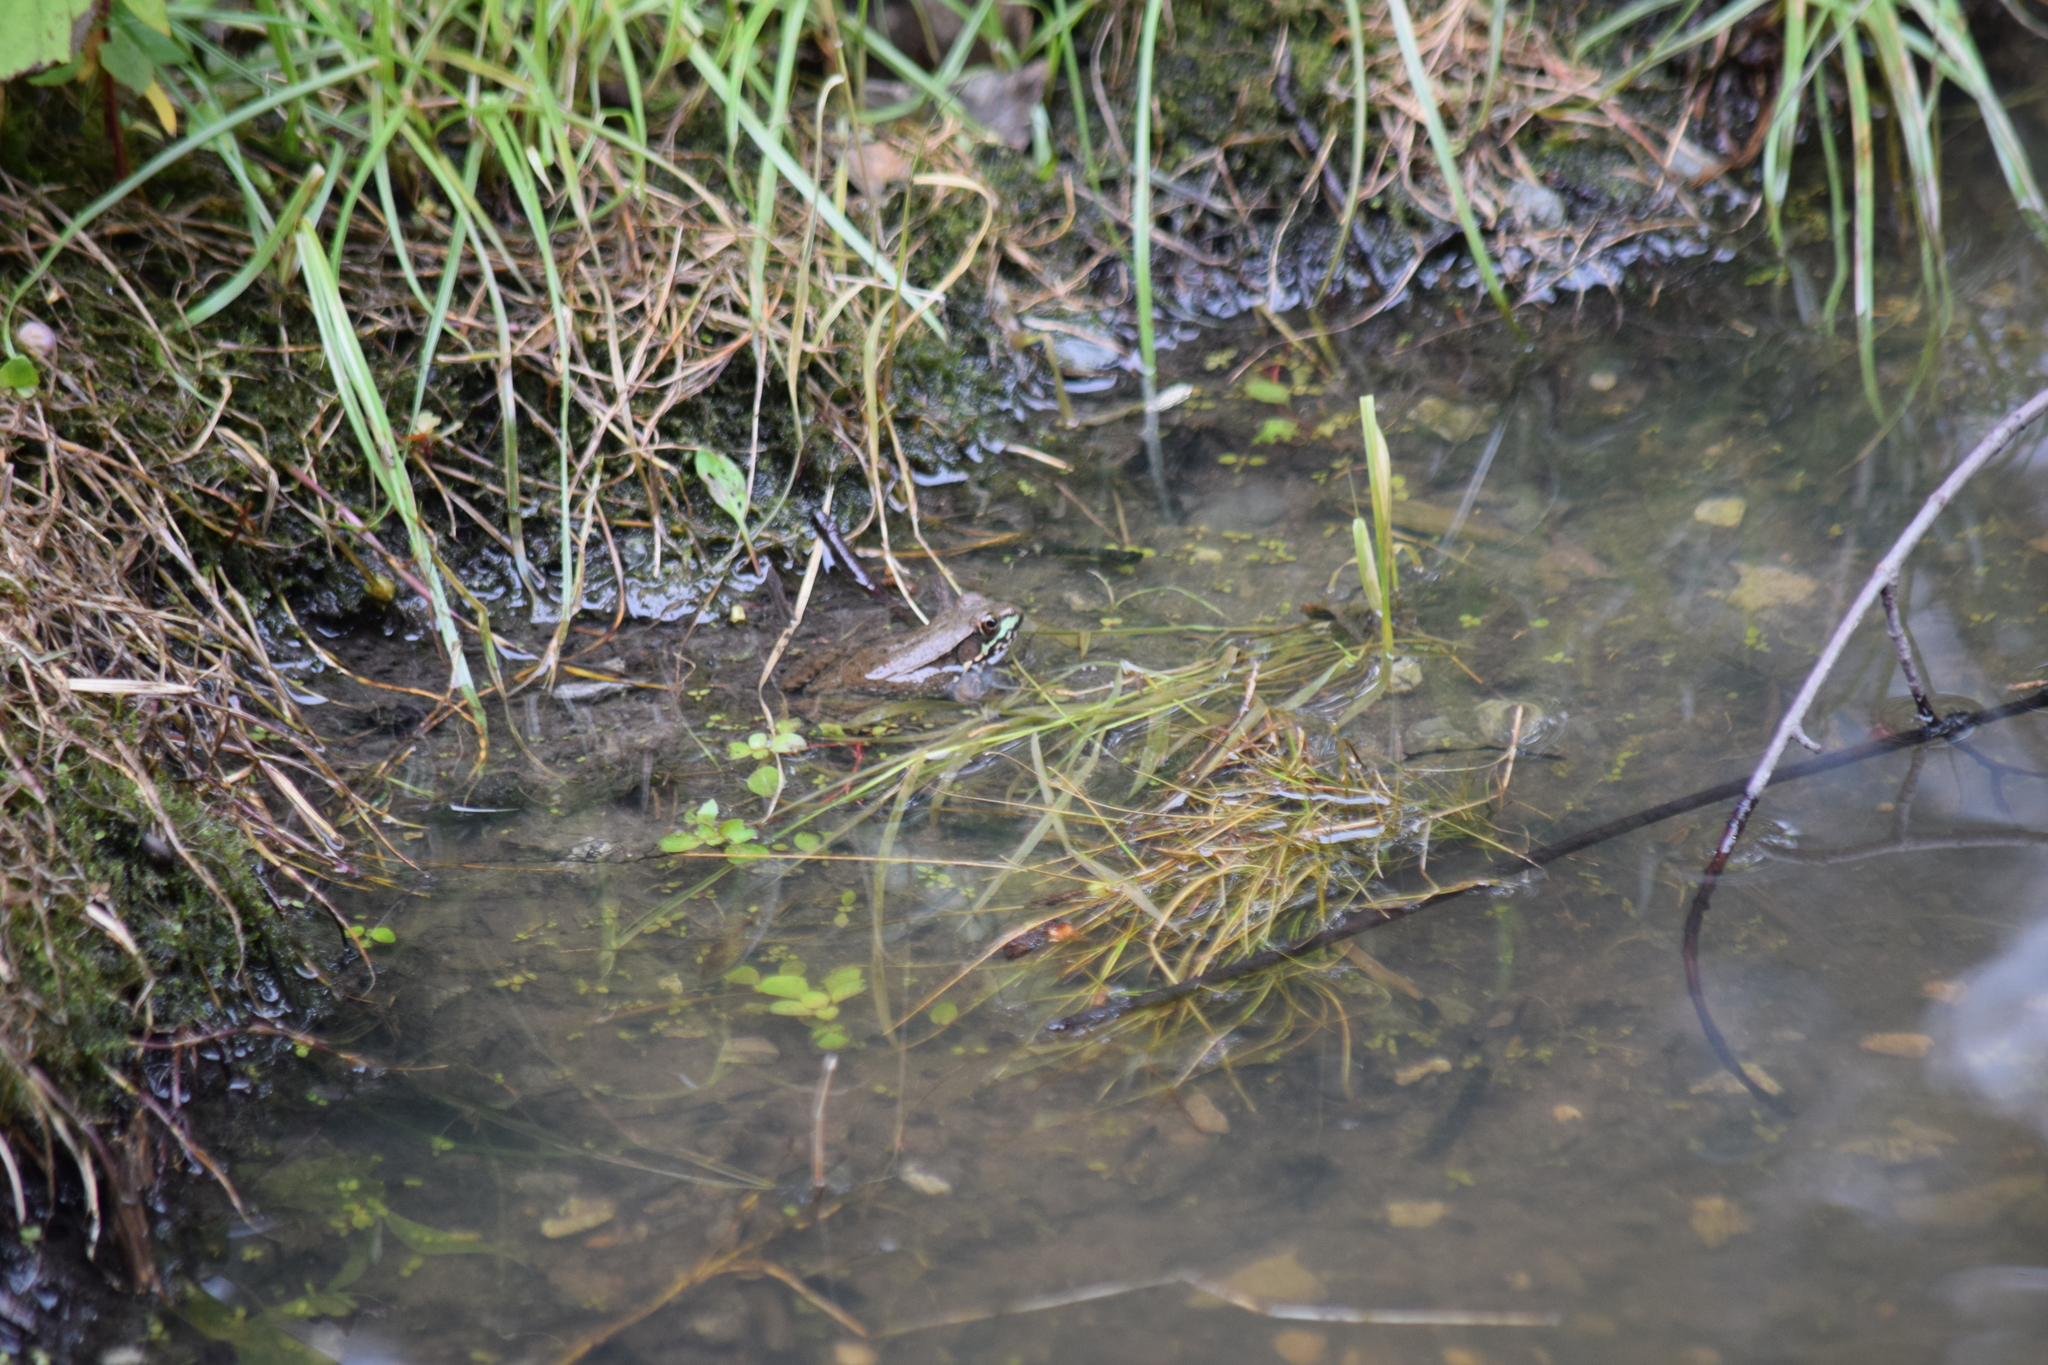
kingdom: Animalia
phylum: Chordata
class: Amphibia
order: Anura
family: Ranidae
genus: Lithobates
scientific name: Lithobates clamitans
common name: Green frog
